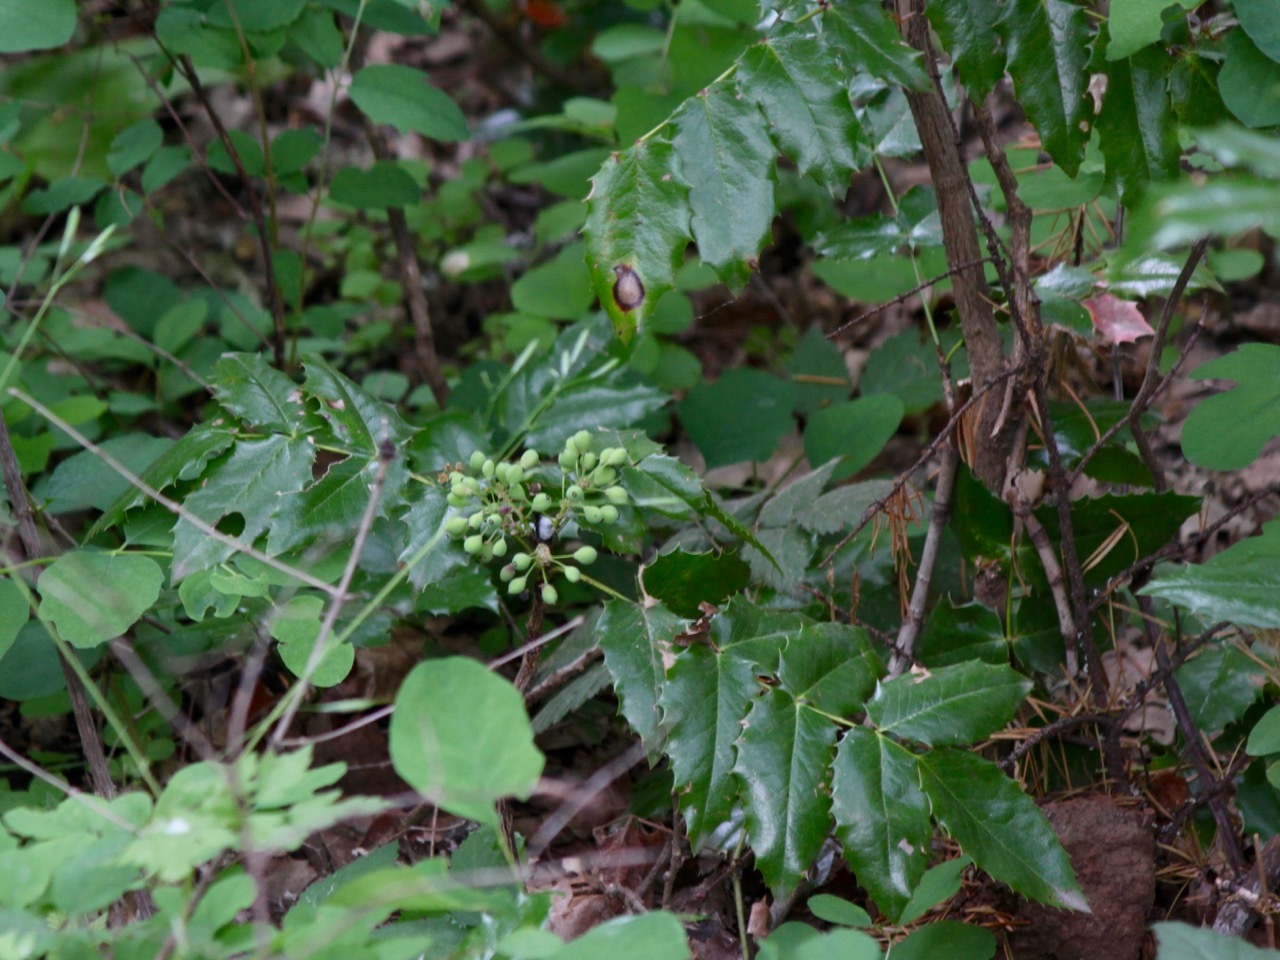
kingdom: Plantae
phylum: Tracheophyta
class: Magnoliopsida
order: Ranunculales
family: Berberidaceae
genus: Mahonia
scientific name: Mahonia aquifolium
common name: Oregon-grape
